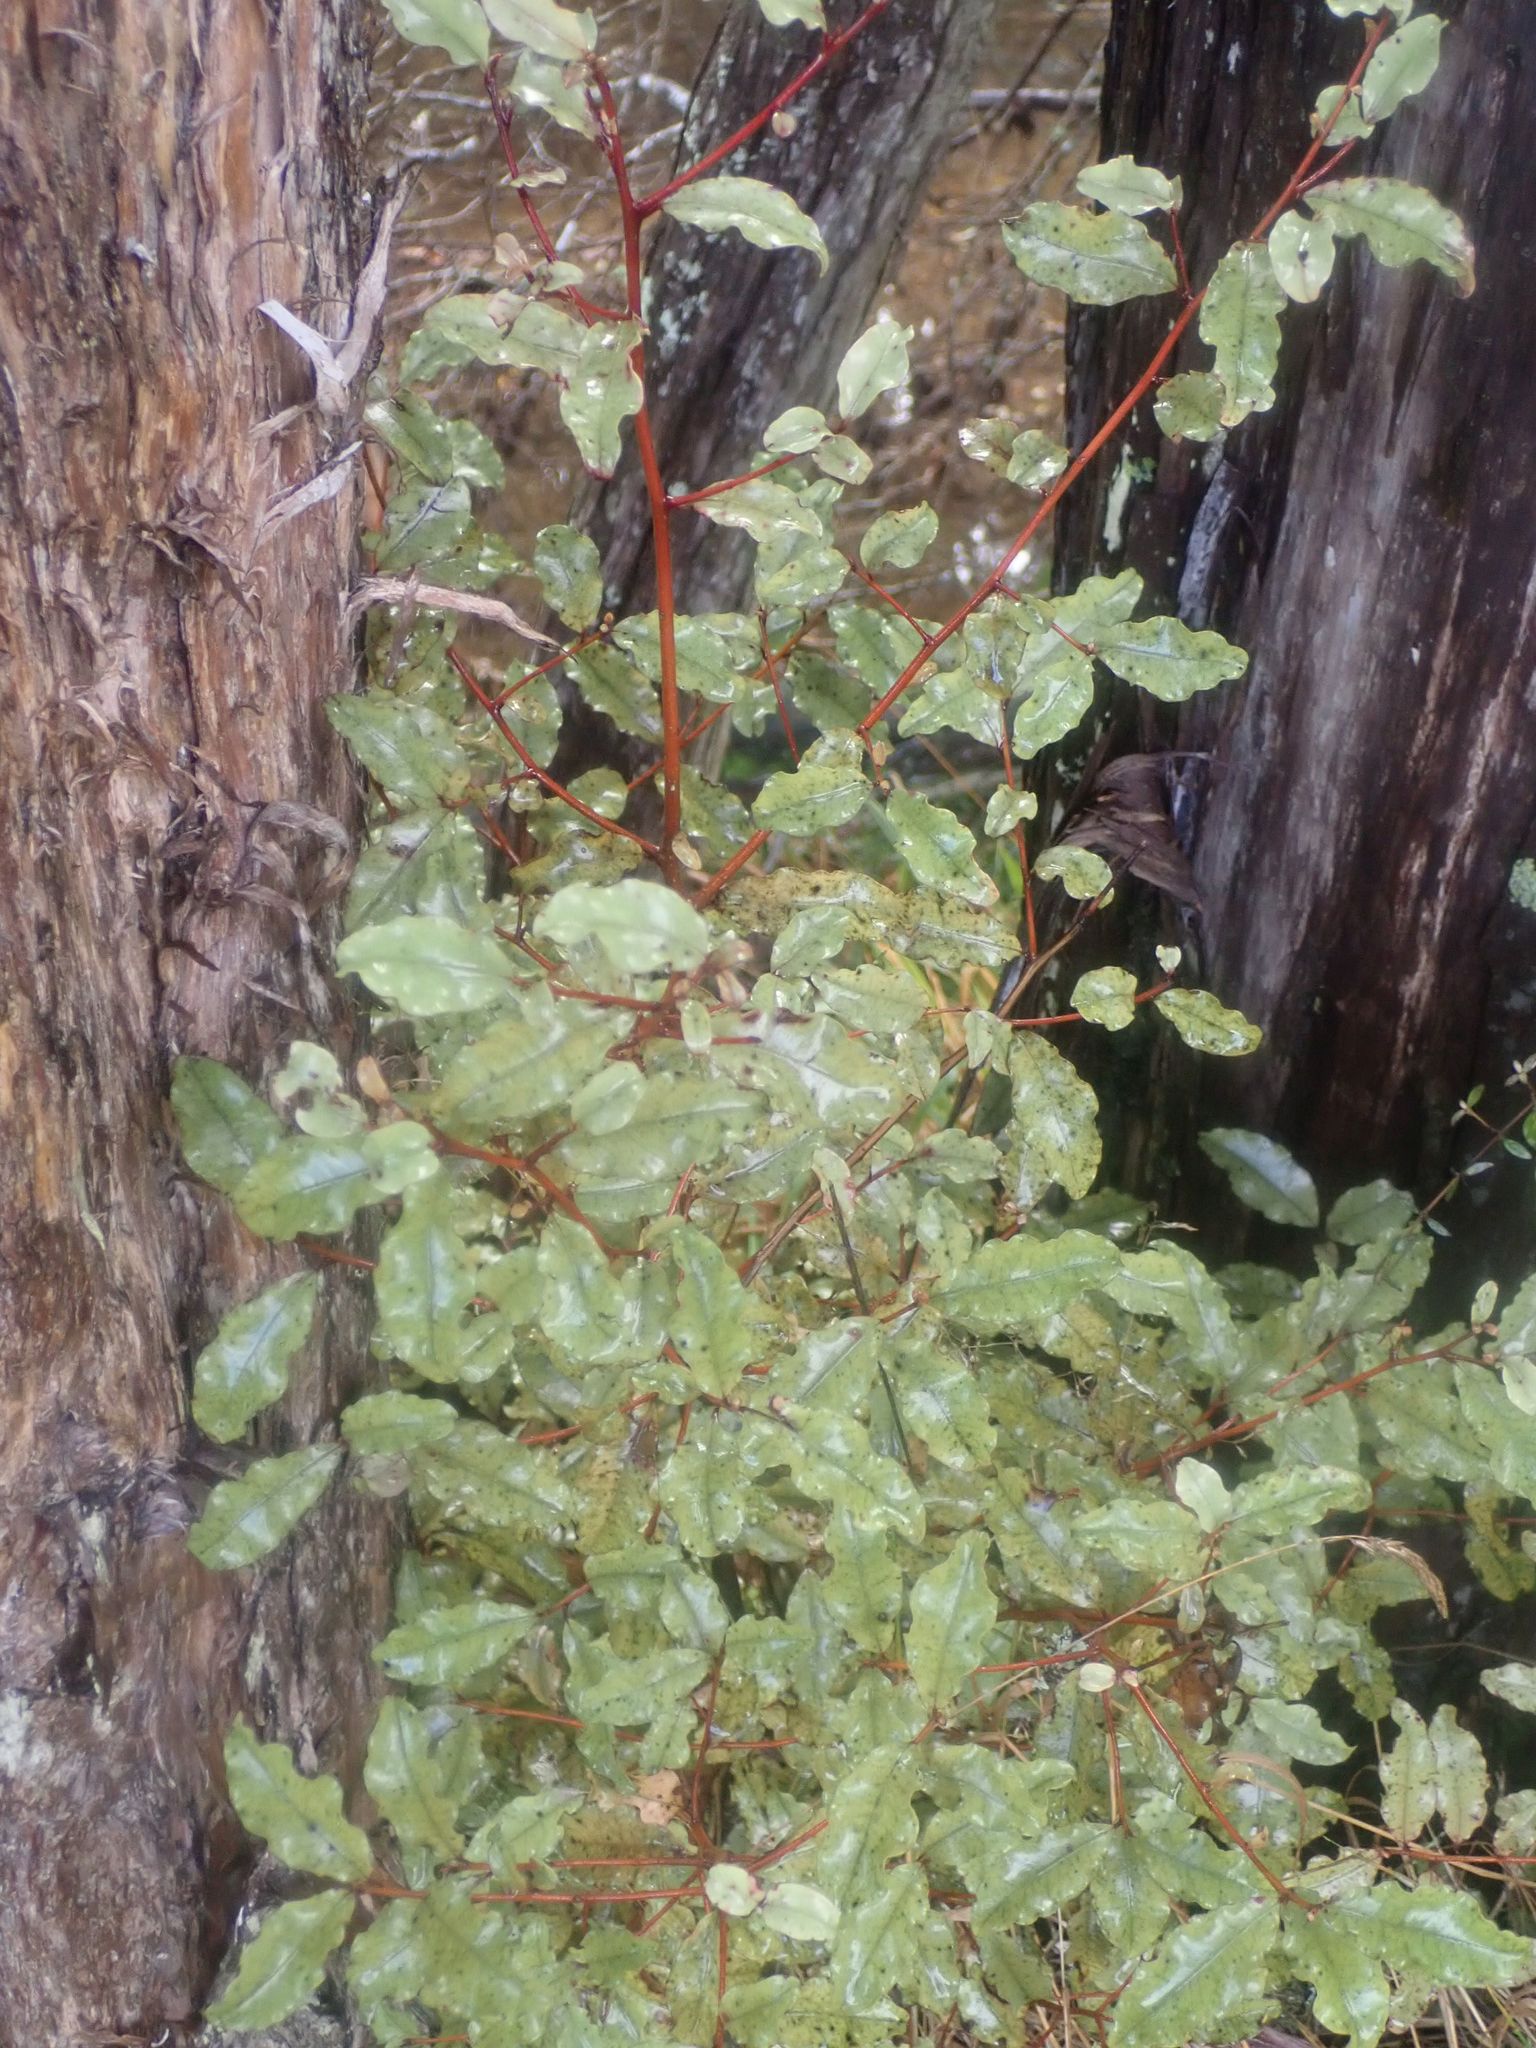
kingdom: Plantae
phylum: Tracheophyta
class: Magnoliopsida
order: Ericales
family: Primulaceae
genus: Myrsine
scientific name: Myrsine australis
